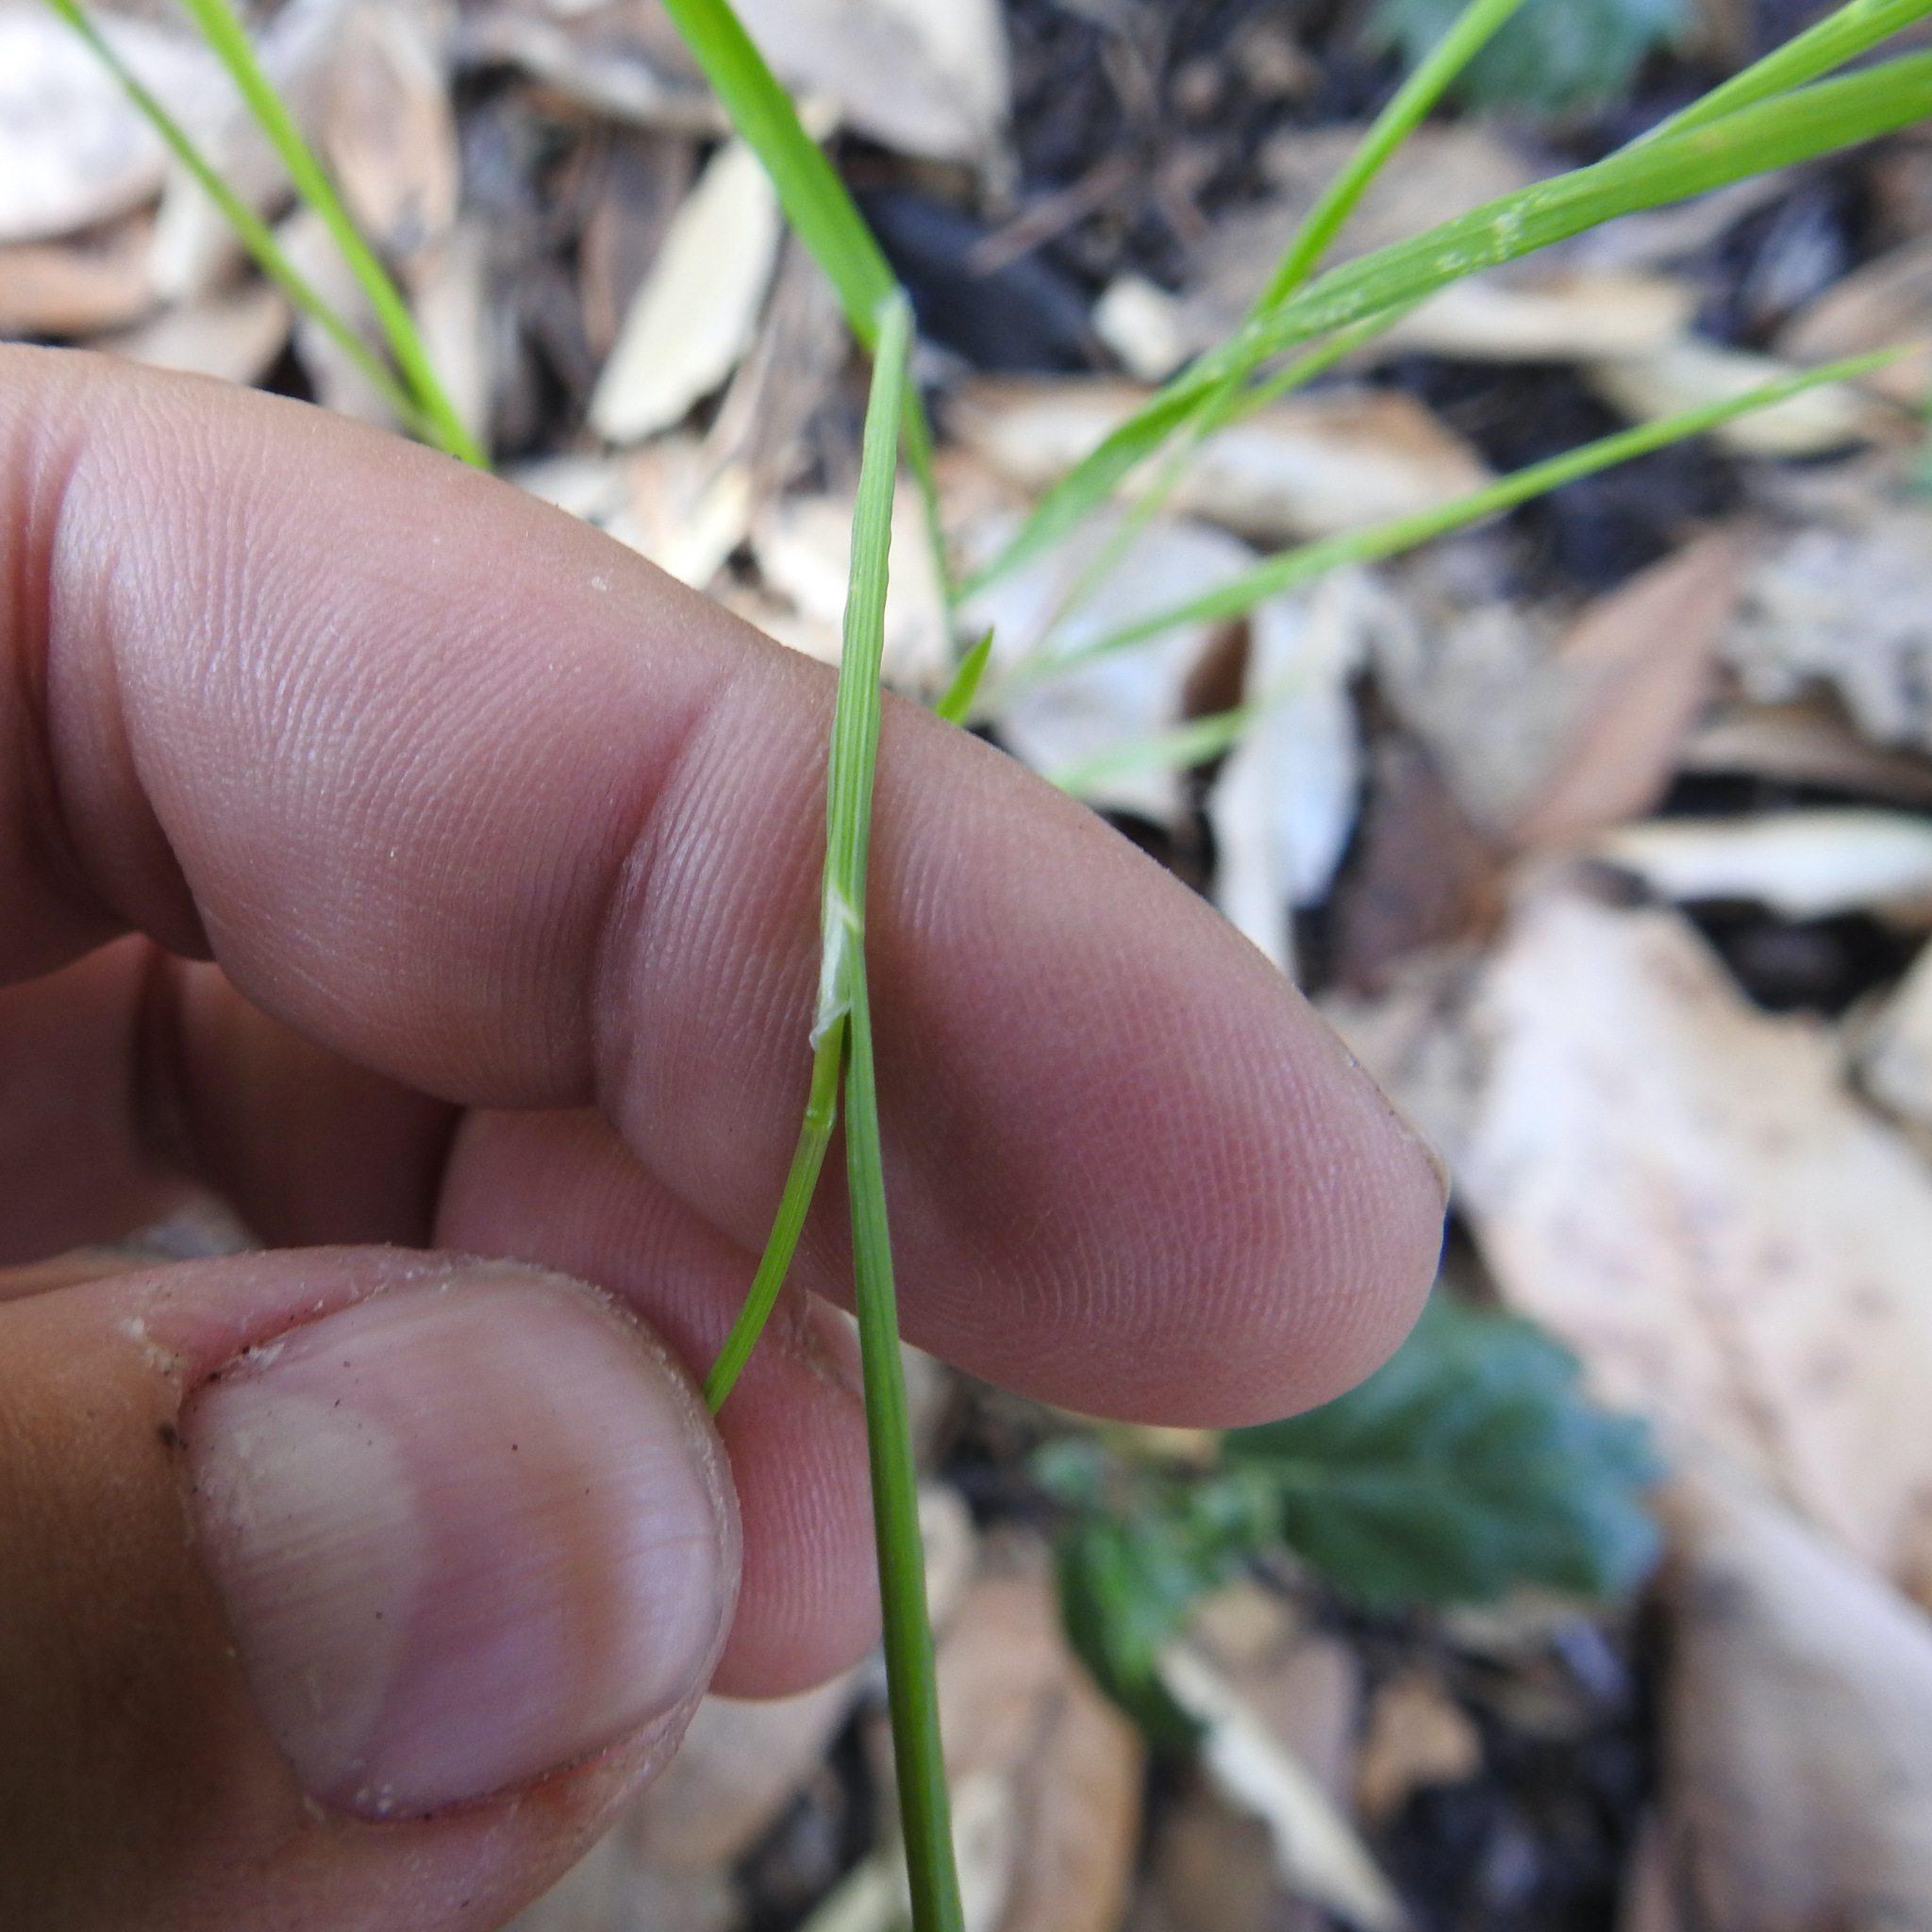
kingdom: Plantae
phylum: Tracheophyta
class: Liliopsida
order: Poales
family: Poaceae
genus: Melica
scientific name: Melica torreyana
